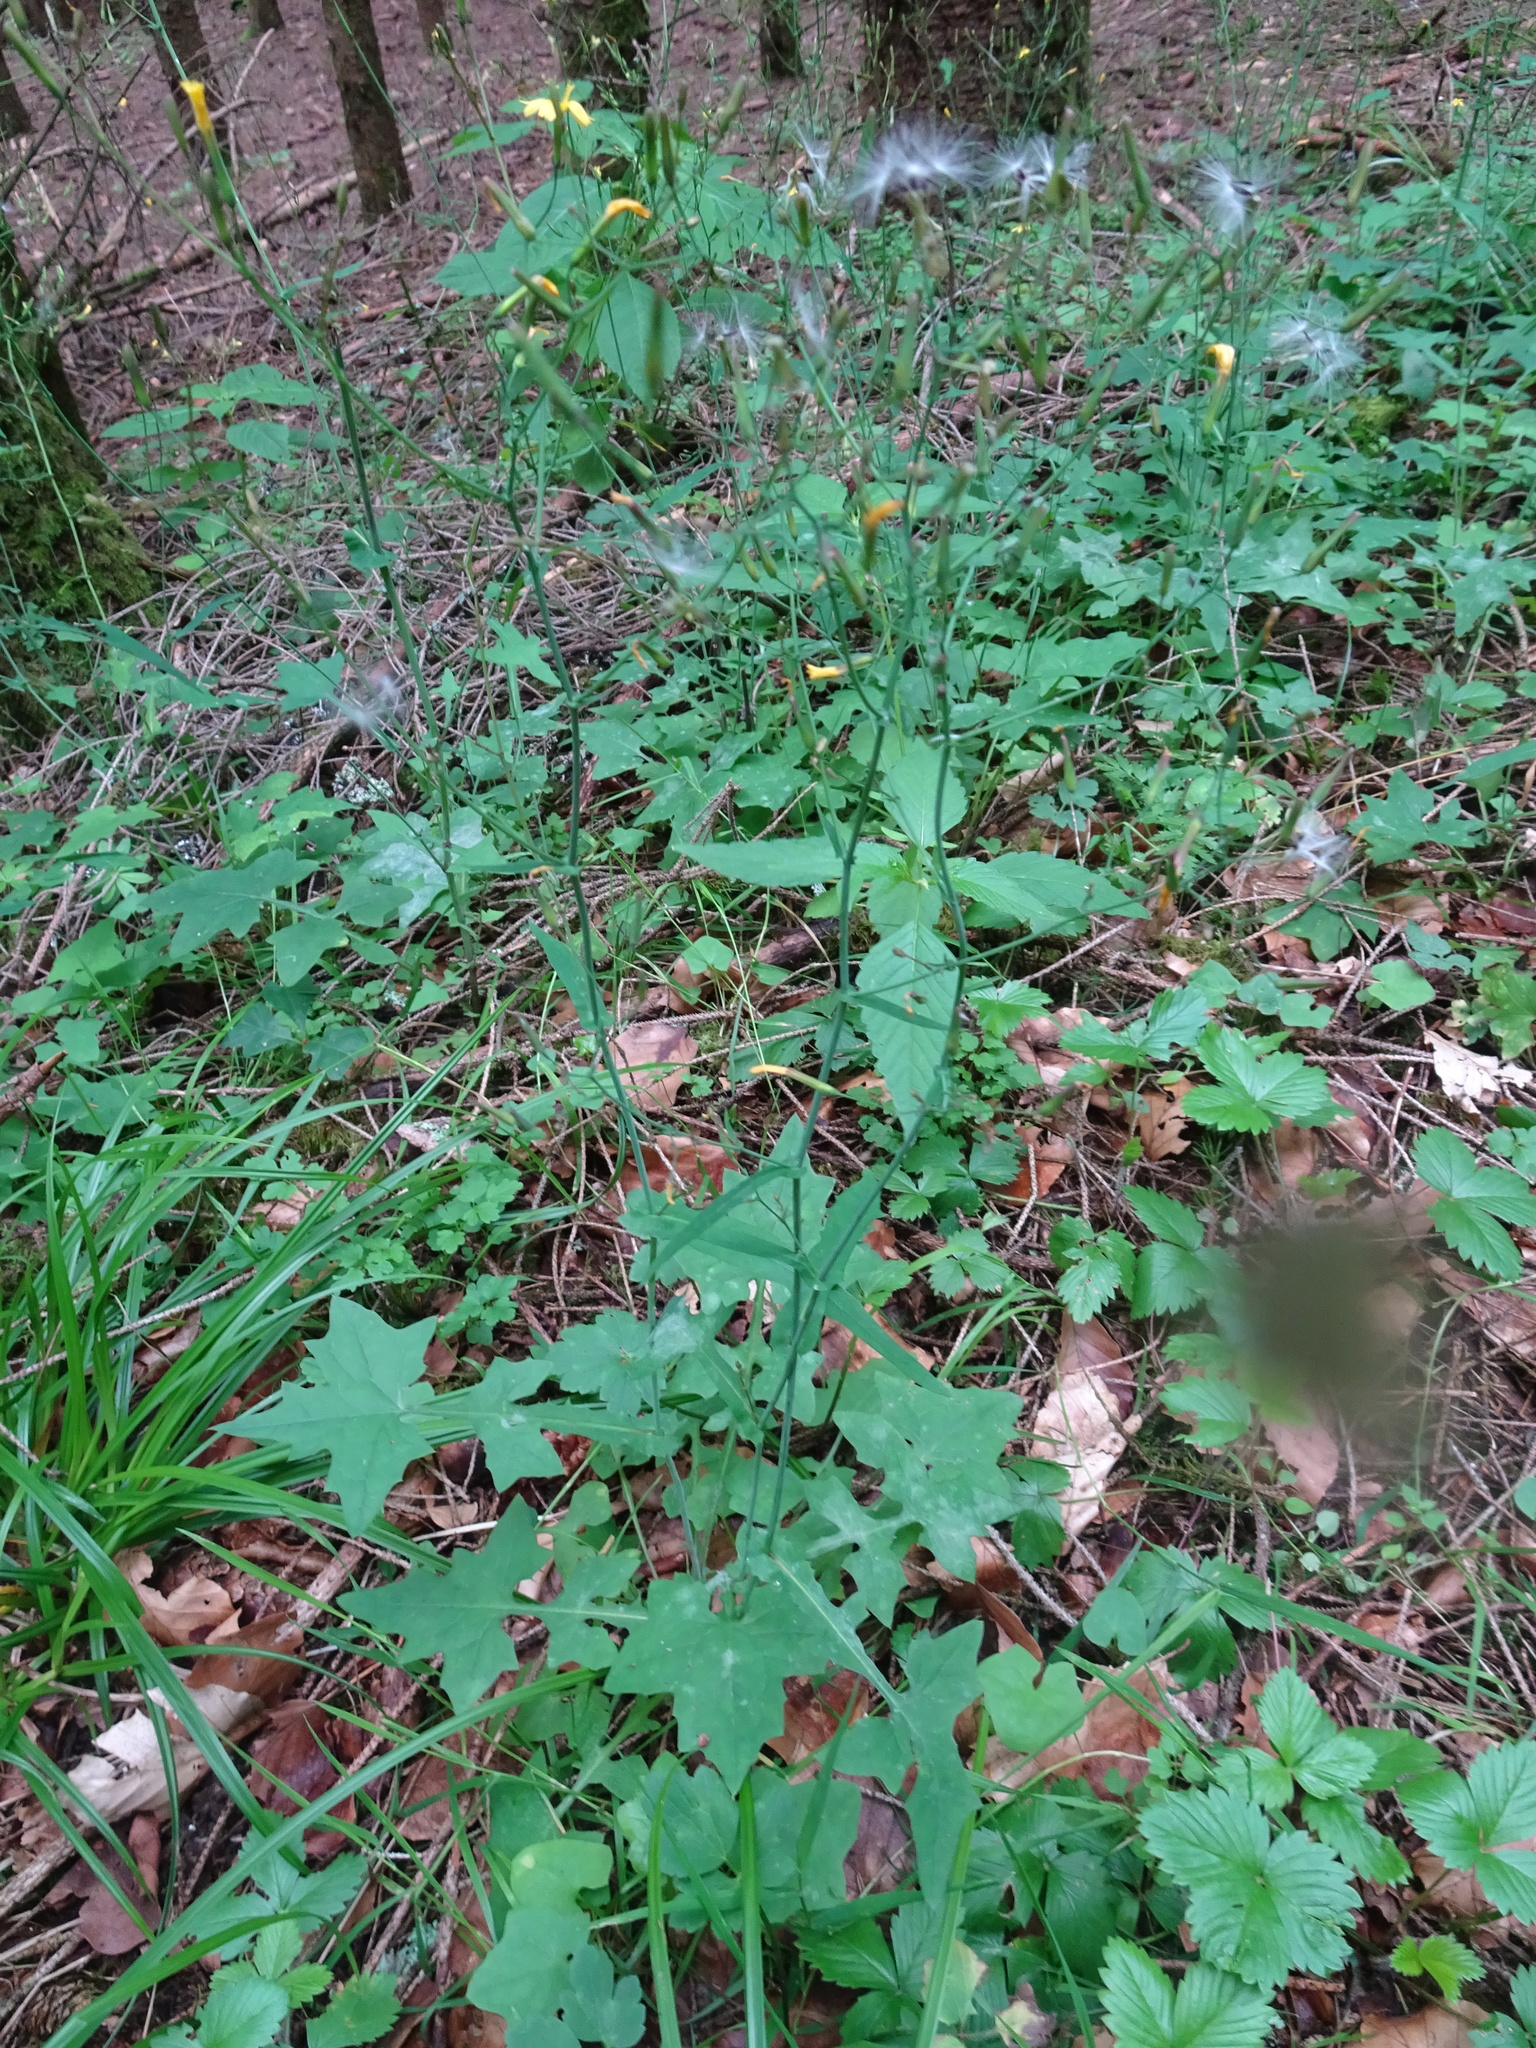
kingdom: Plantae
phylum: Tracheophyta
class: Magnoliopsida
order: Asterales
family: Asteraceae
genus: Mycelis
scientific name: Mycelis muralis
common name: Wall lettuce
